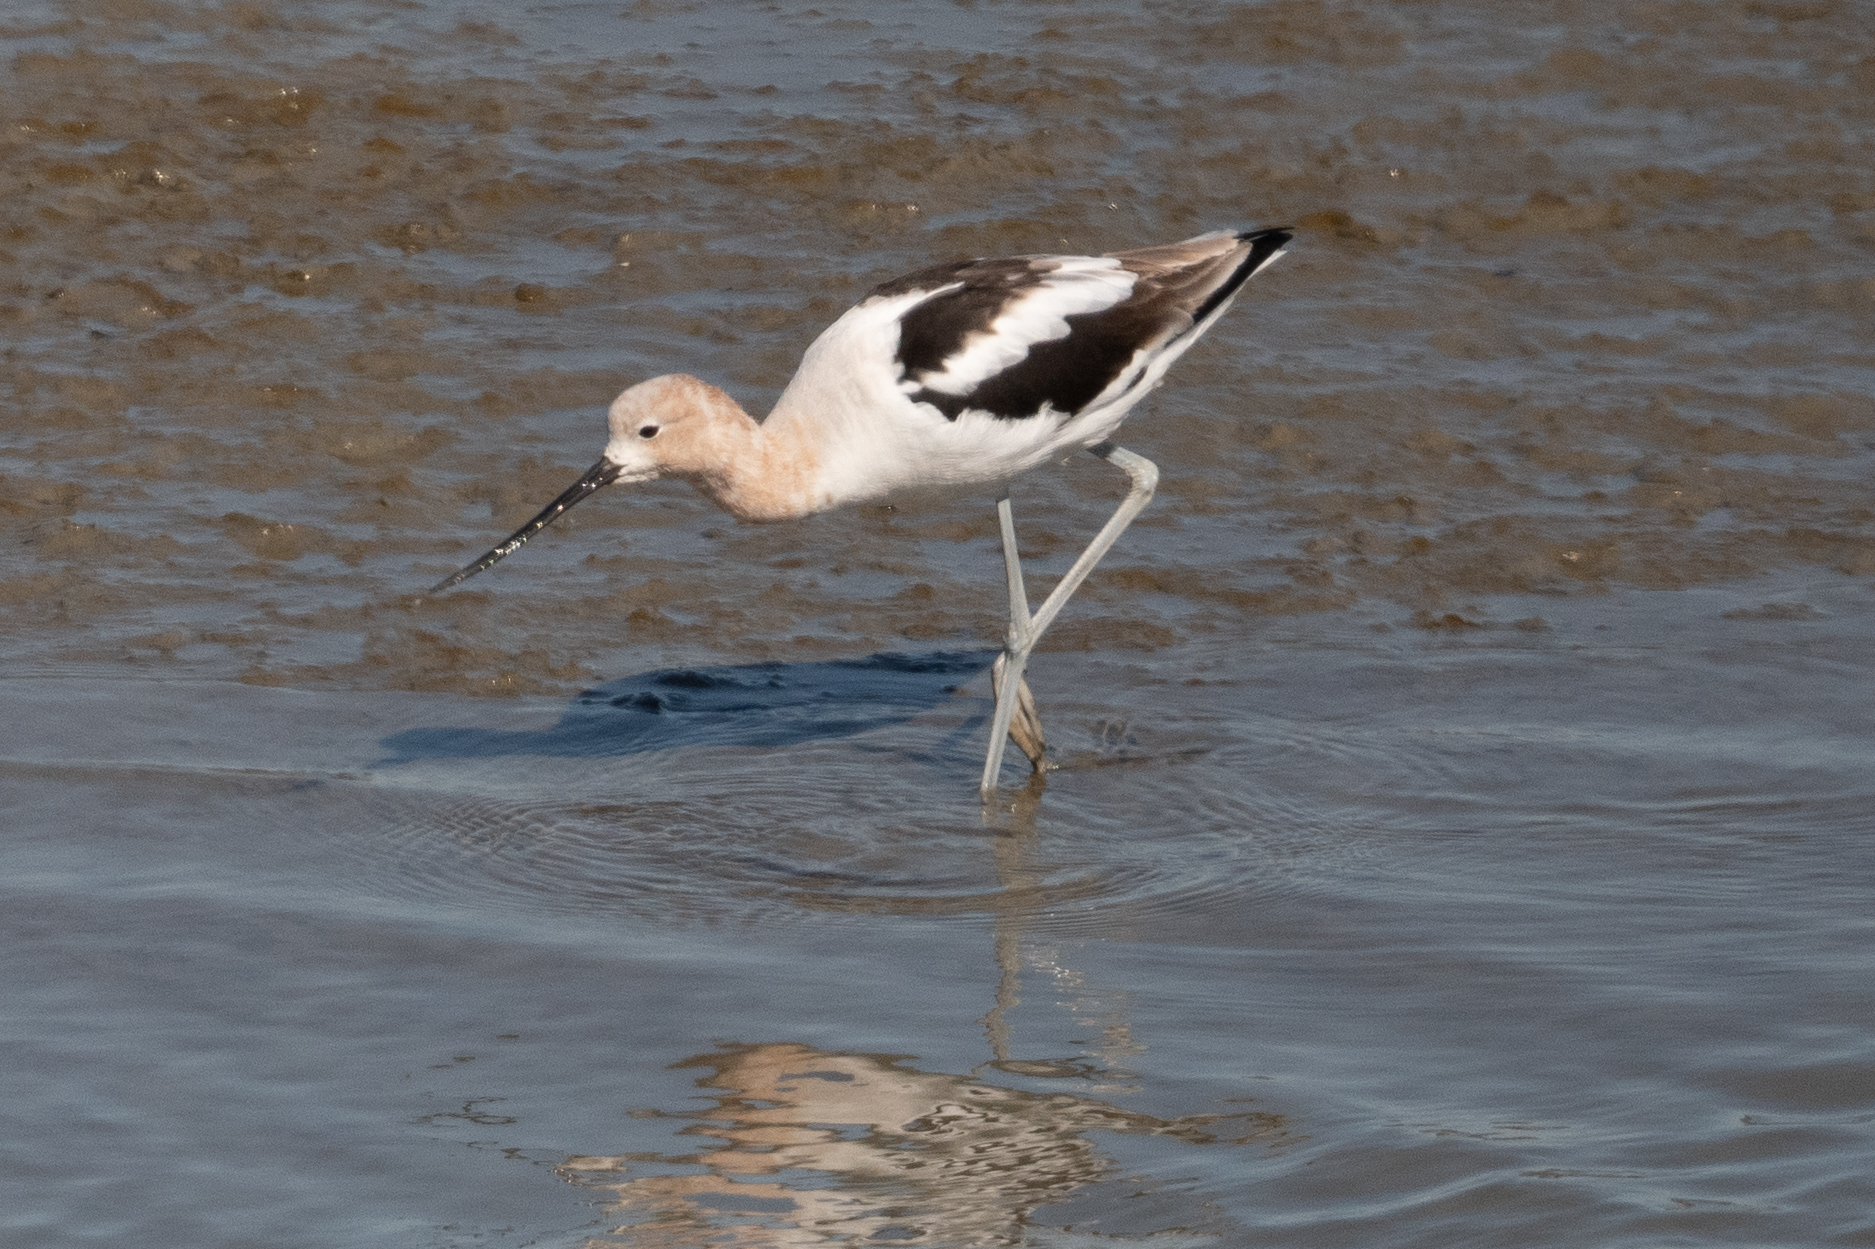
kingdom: Animalia
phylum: Chordata
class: Aves
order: Charadriiformes
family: Recurvirostridae
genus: Recurvirostra
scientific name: Recurvirostra americana
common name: American avocet
